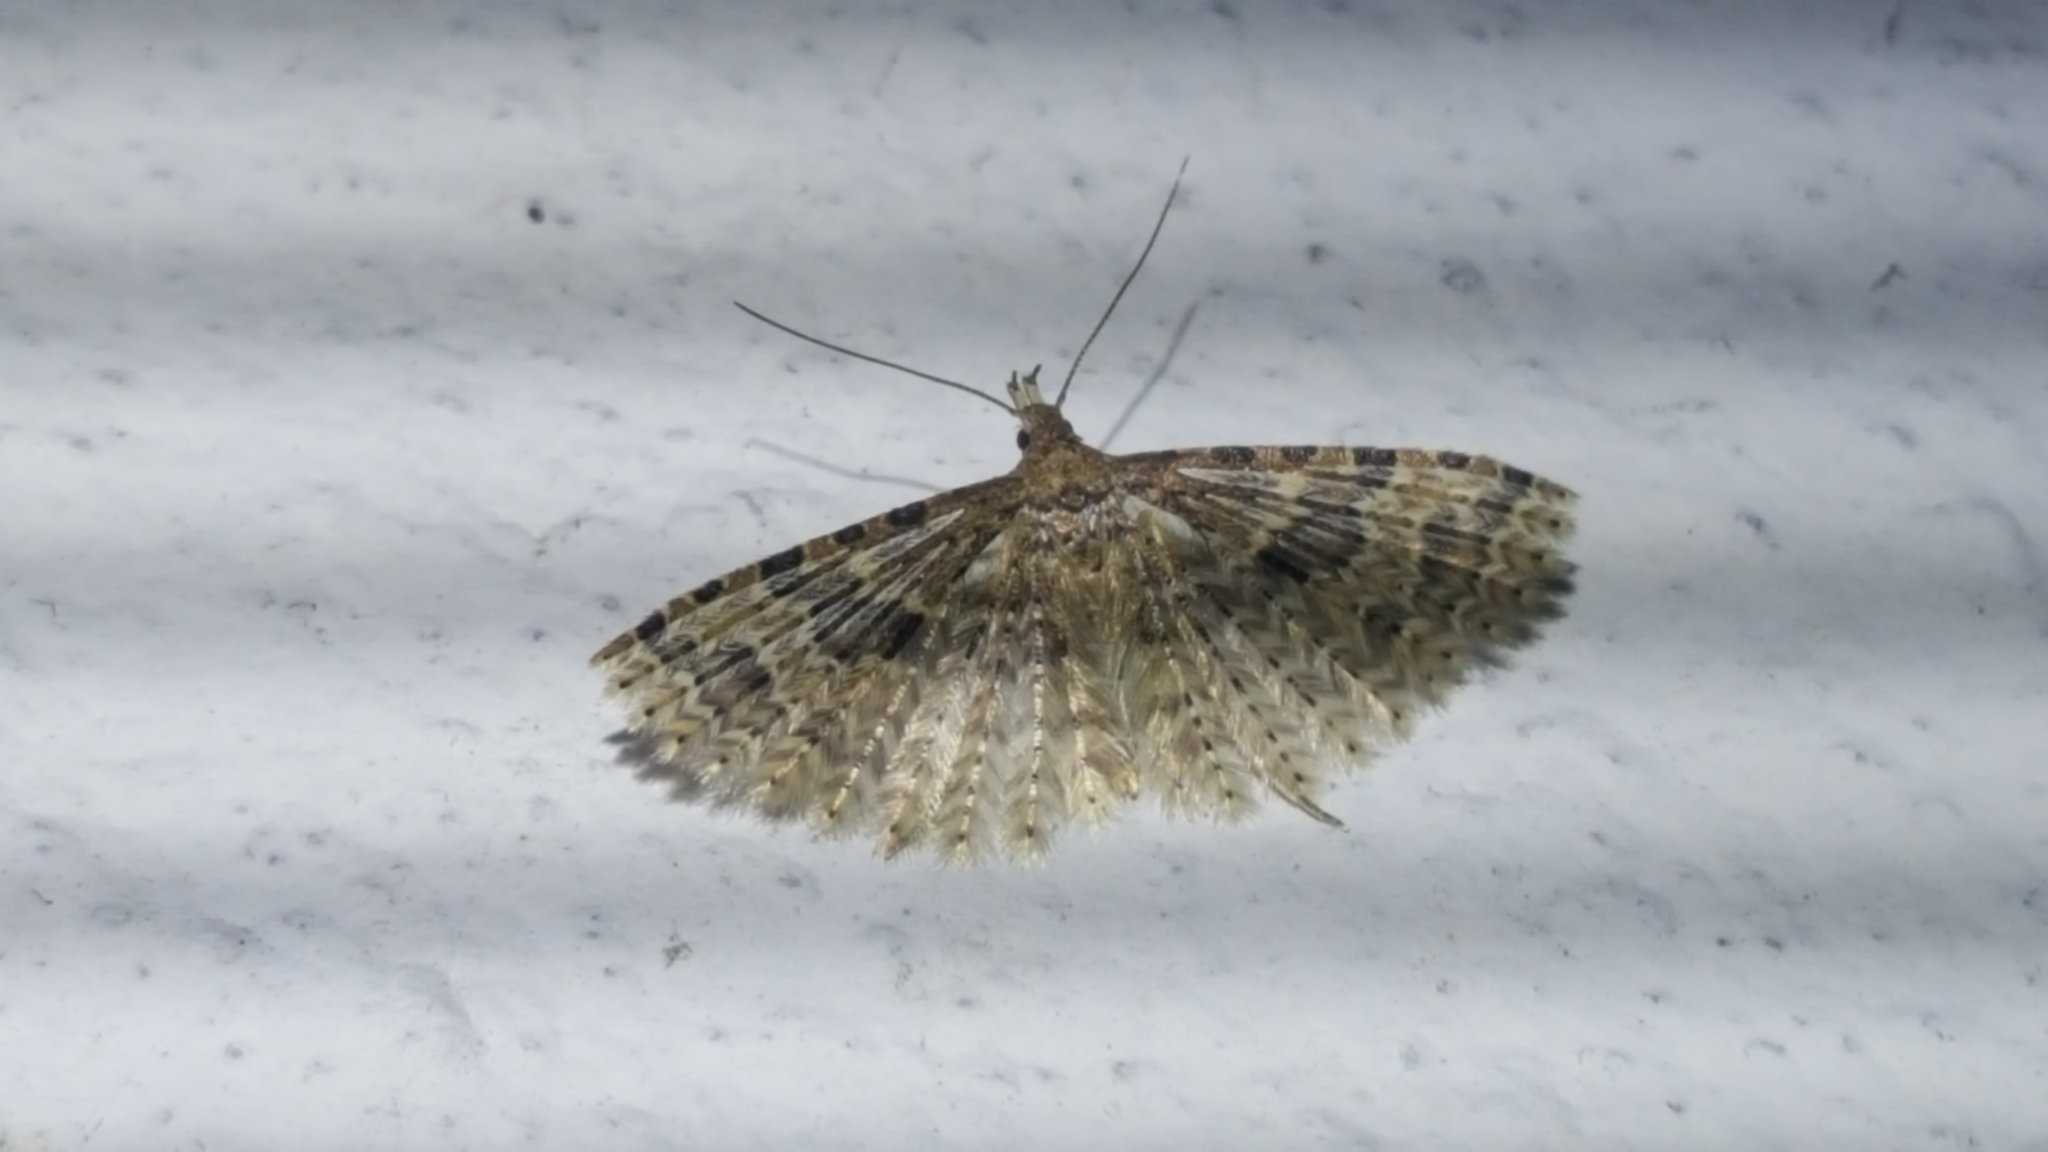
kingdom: Animalia
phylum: Arthropoda
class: Insecta
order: Lepidoptera
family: Alucitidae
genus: Alucita
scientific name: Alucita hexadactyla
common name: Twenty-plume moth
